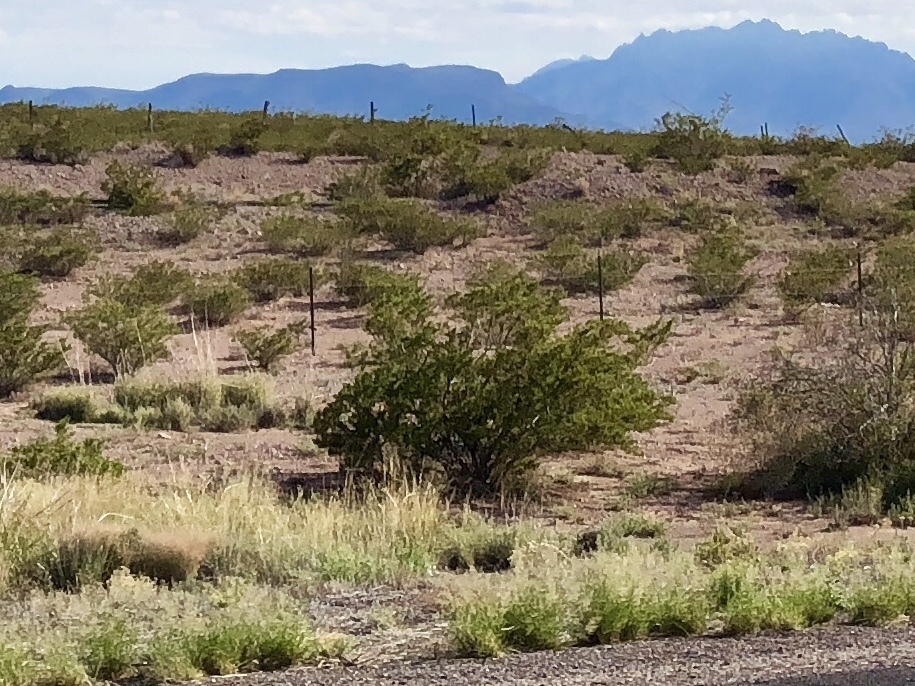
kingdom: Plantae
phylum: Tracheophyta
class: Magnoliopsida
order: Zygophyllales
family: Zygophyllaceae
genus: Larrea
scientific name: Larrea tridentata
